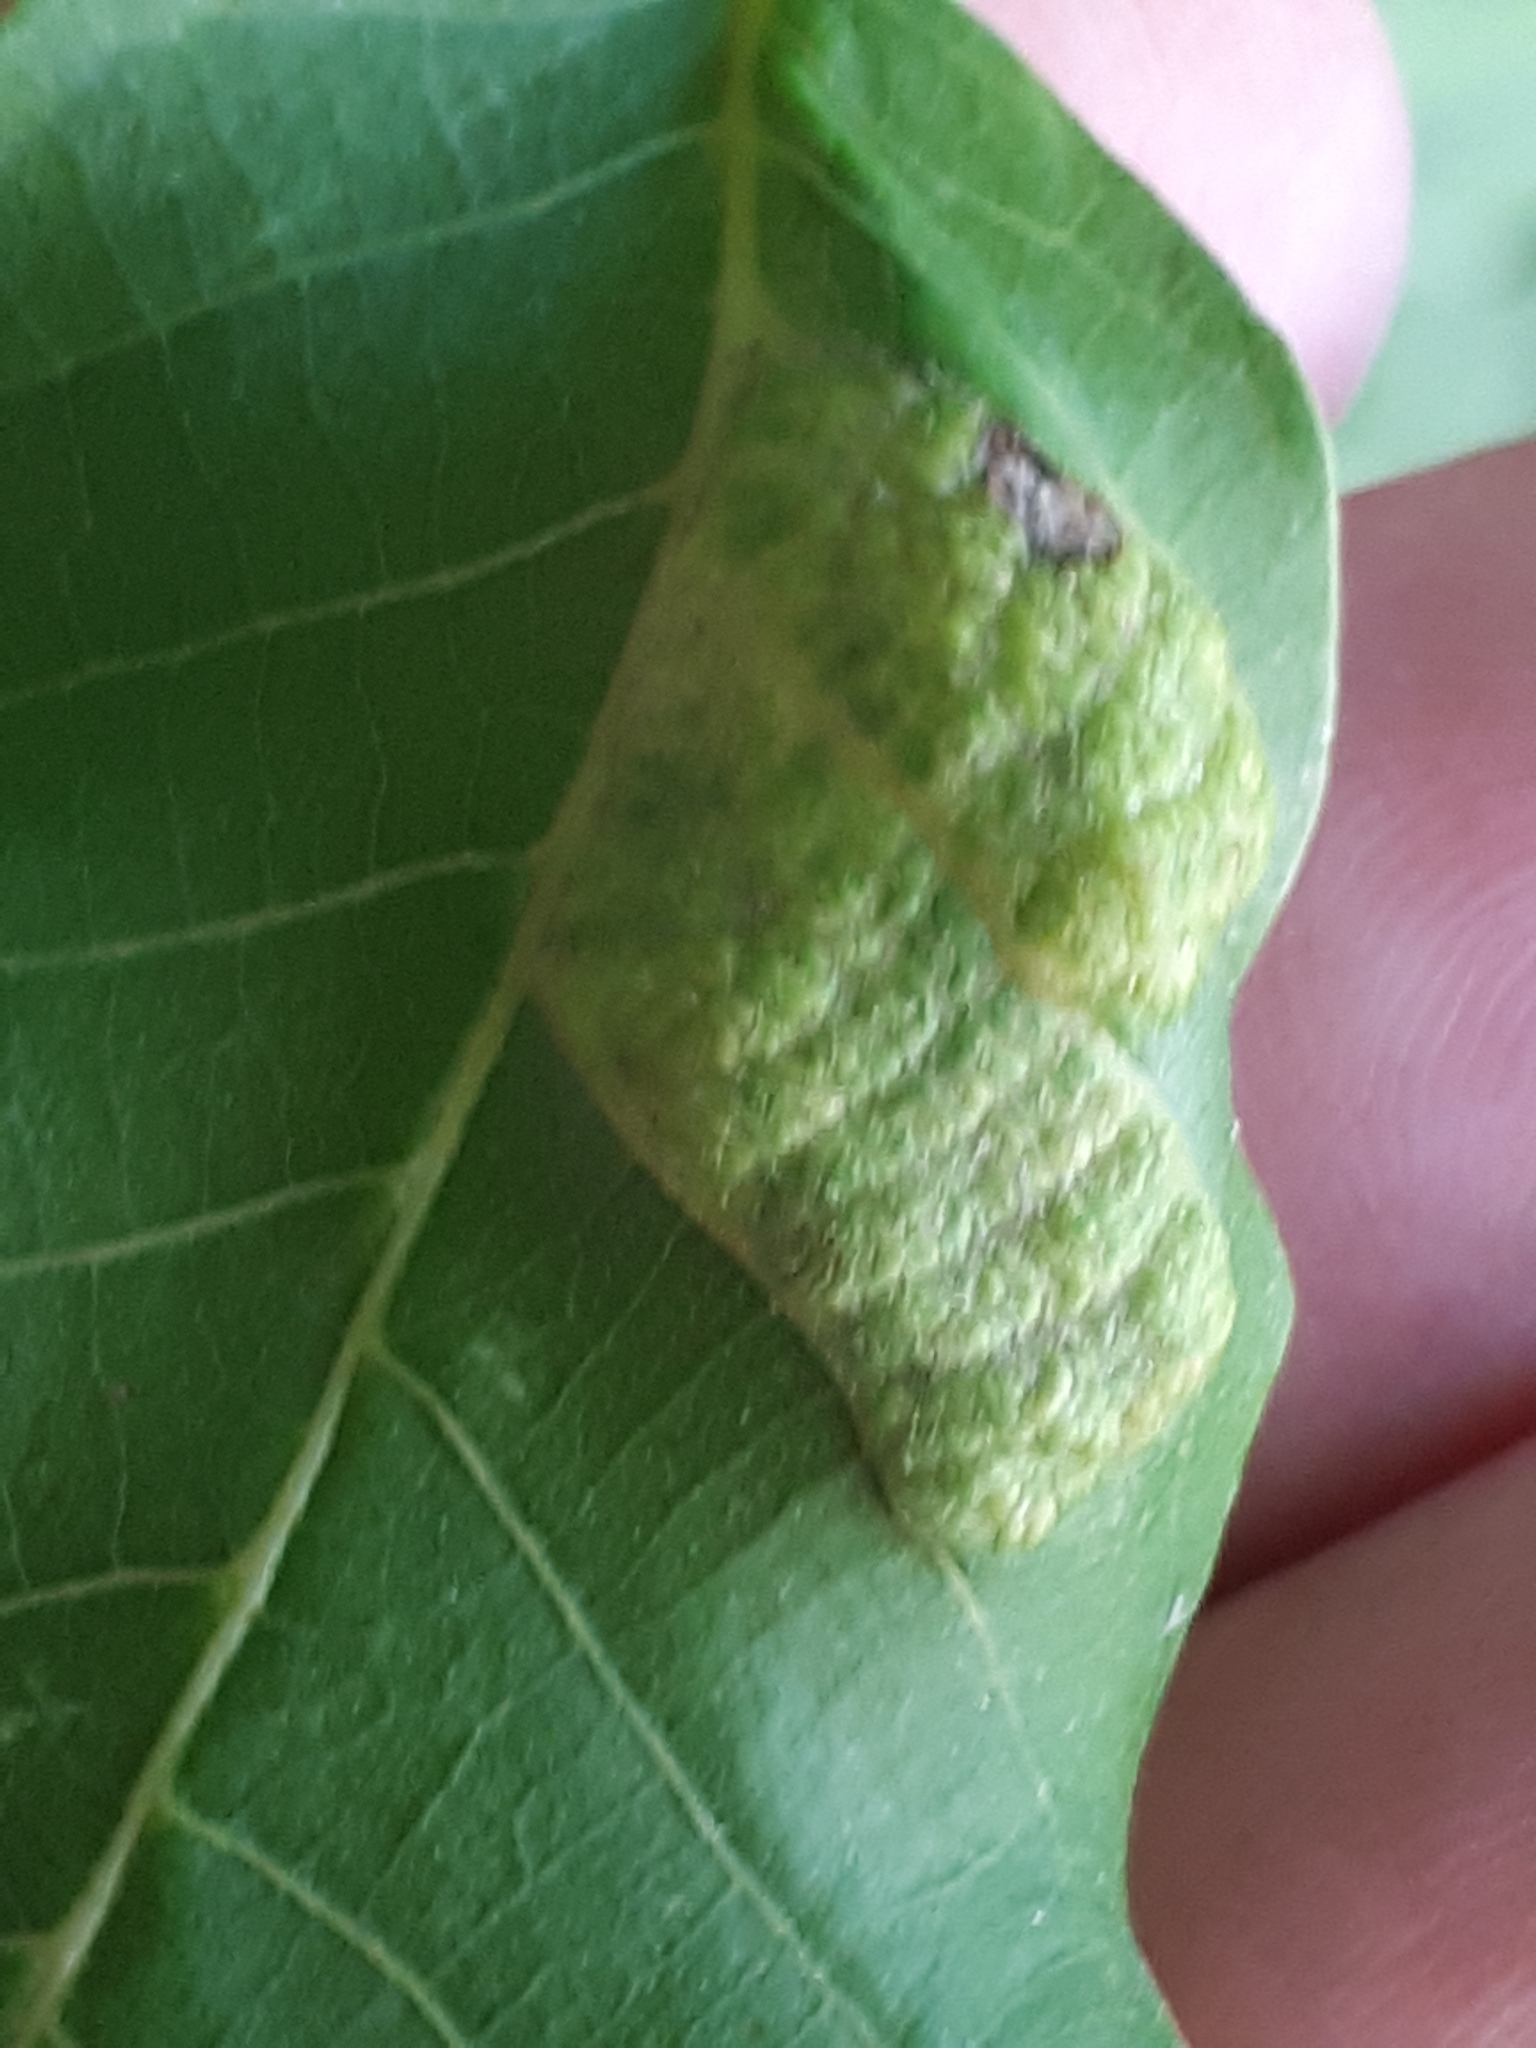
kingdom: Animalia
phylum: Arthropoda
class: Arachnida
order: Trombidiformes
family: Eriophyidae
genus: Aceria
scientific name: Aceria erinea
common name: Persian walnut erineum mite
